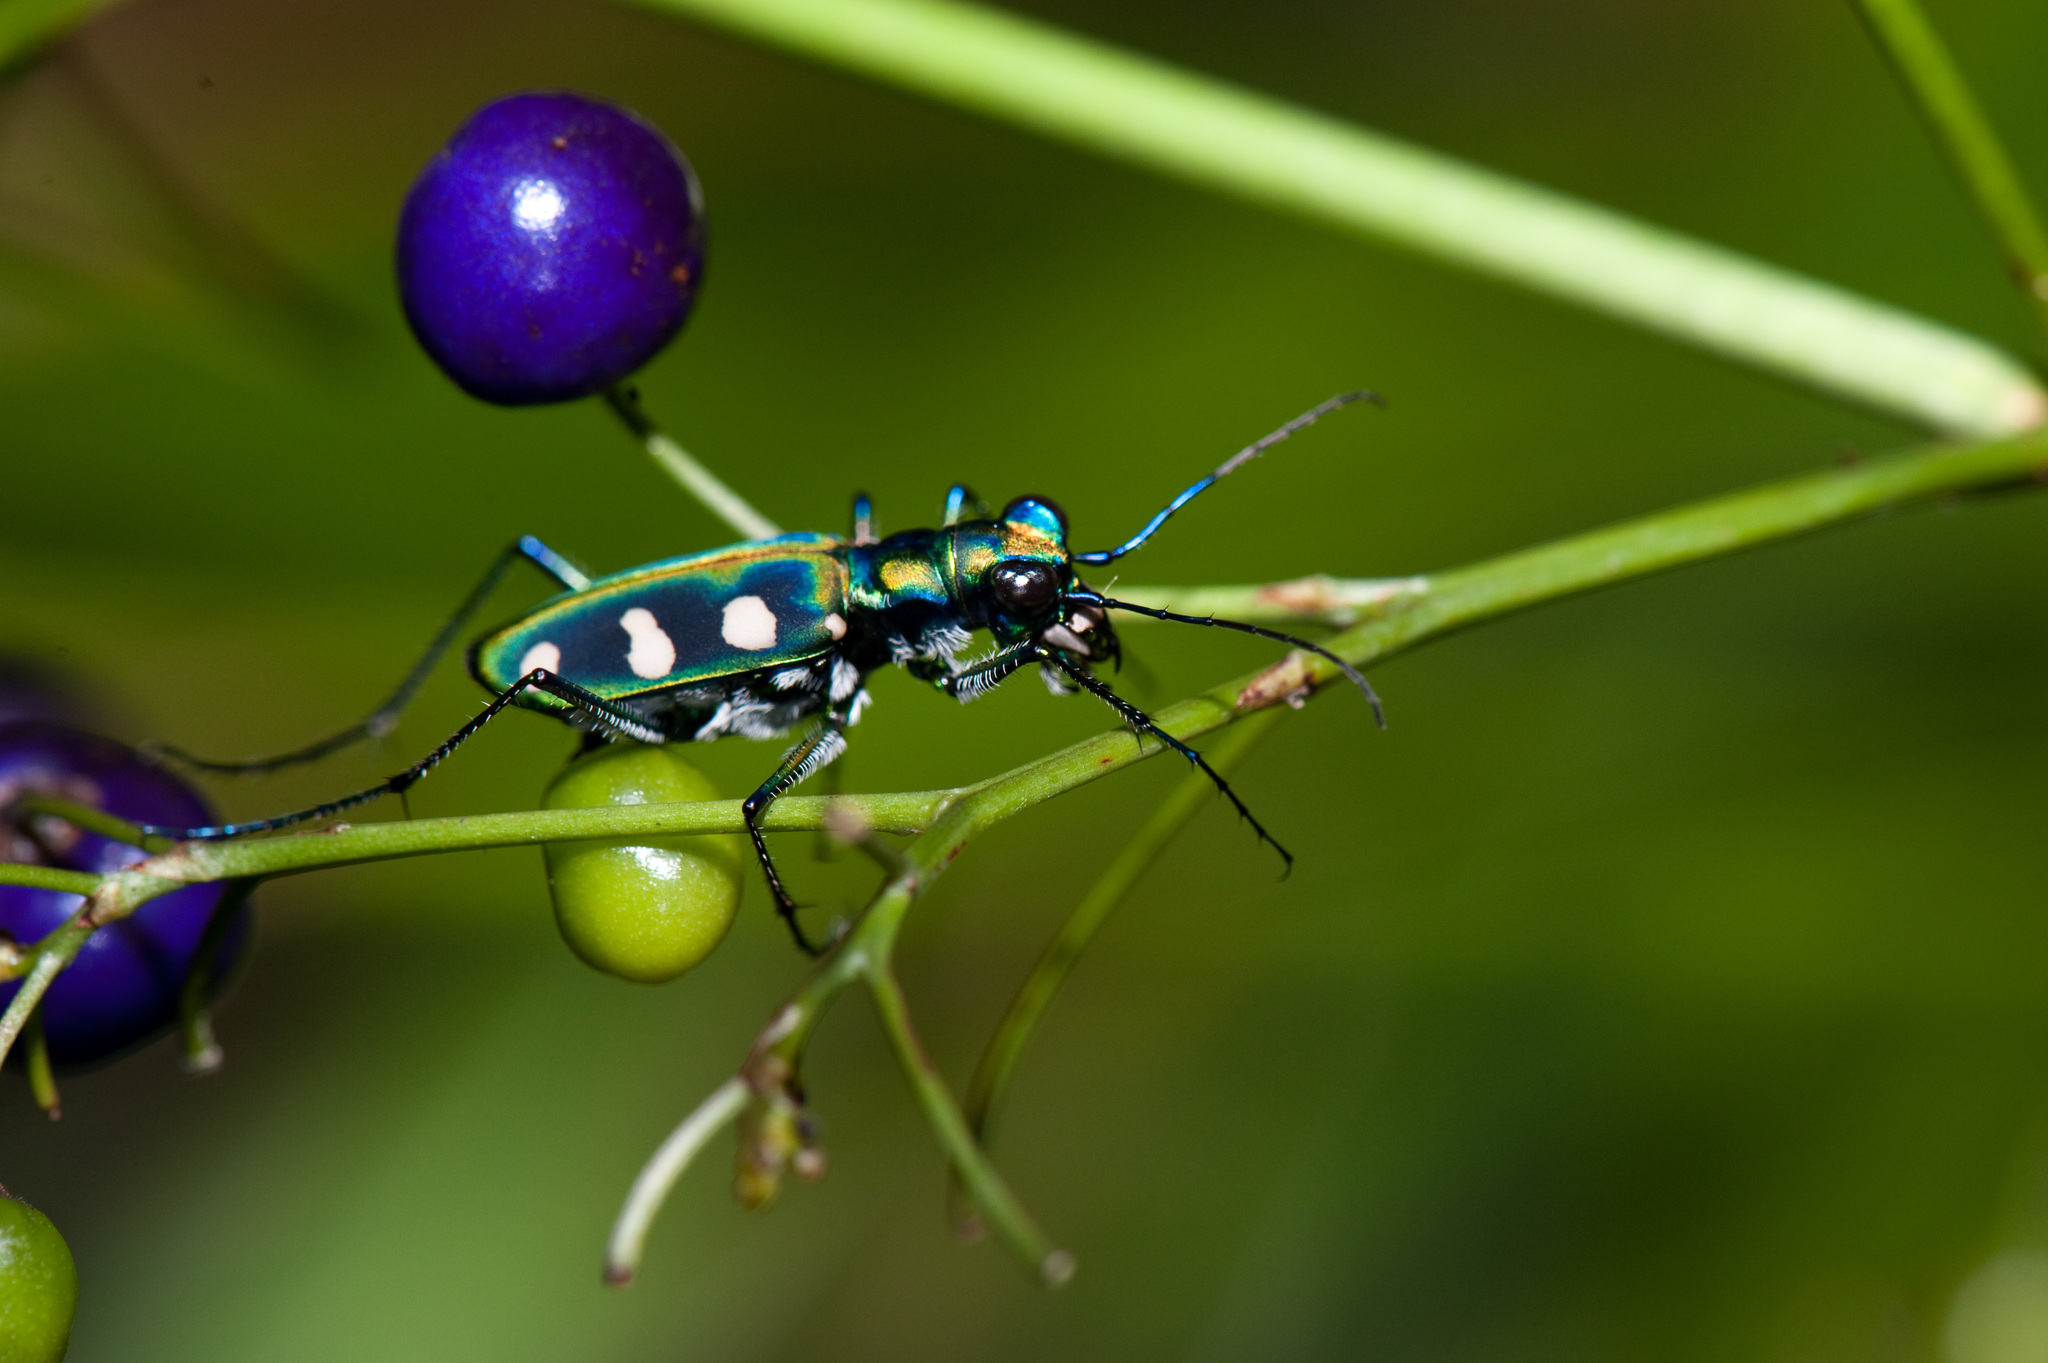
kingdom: Animalia
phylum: Arthropoda
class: Insecta
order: Coleoptera
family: Carabidae
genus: Cicindela
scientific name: Cicindela batesi
